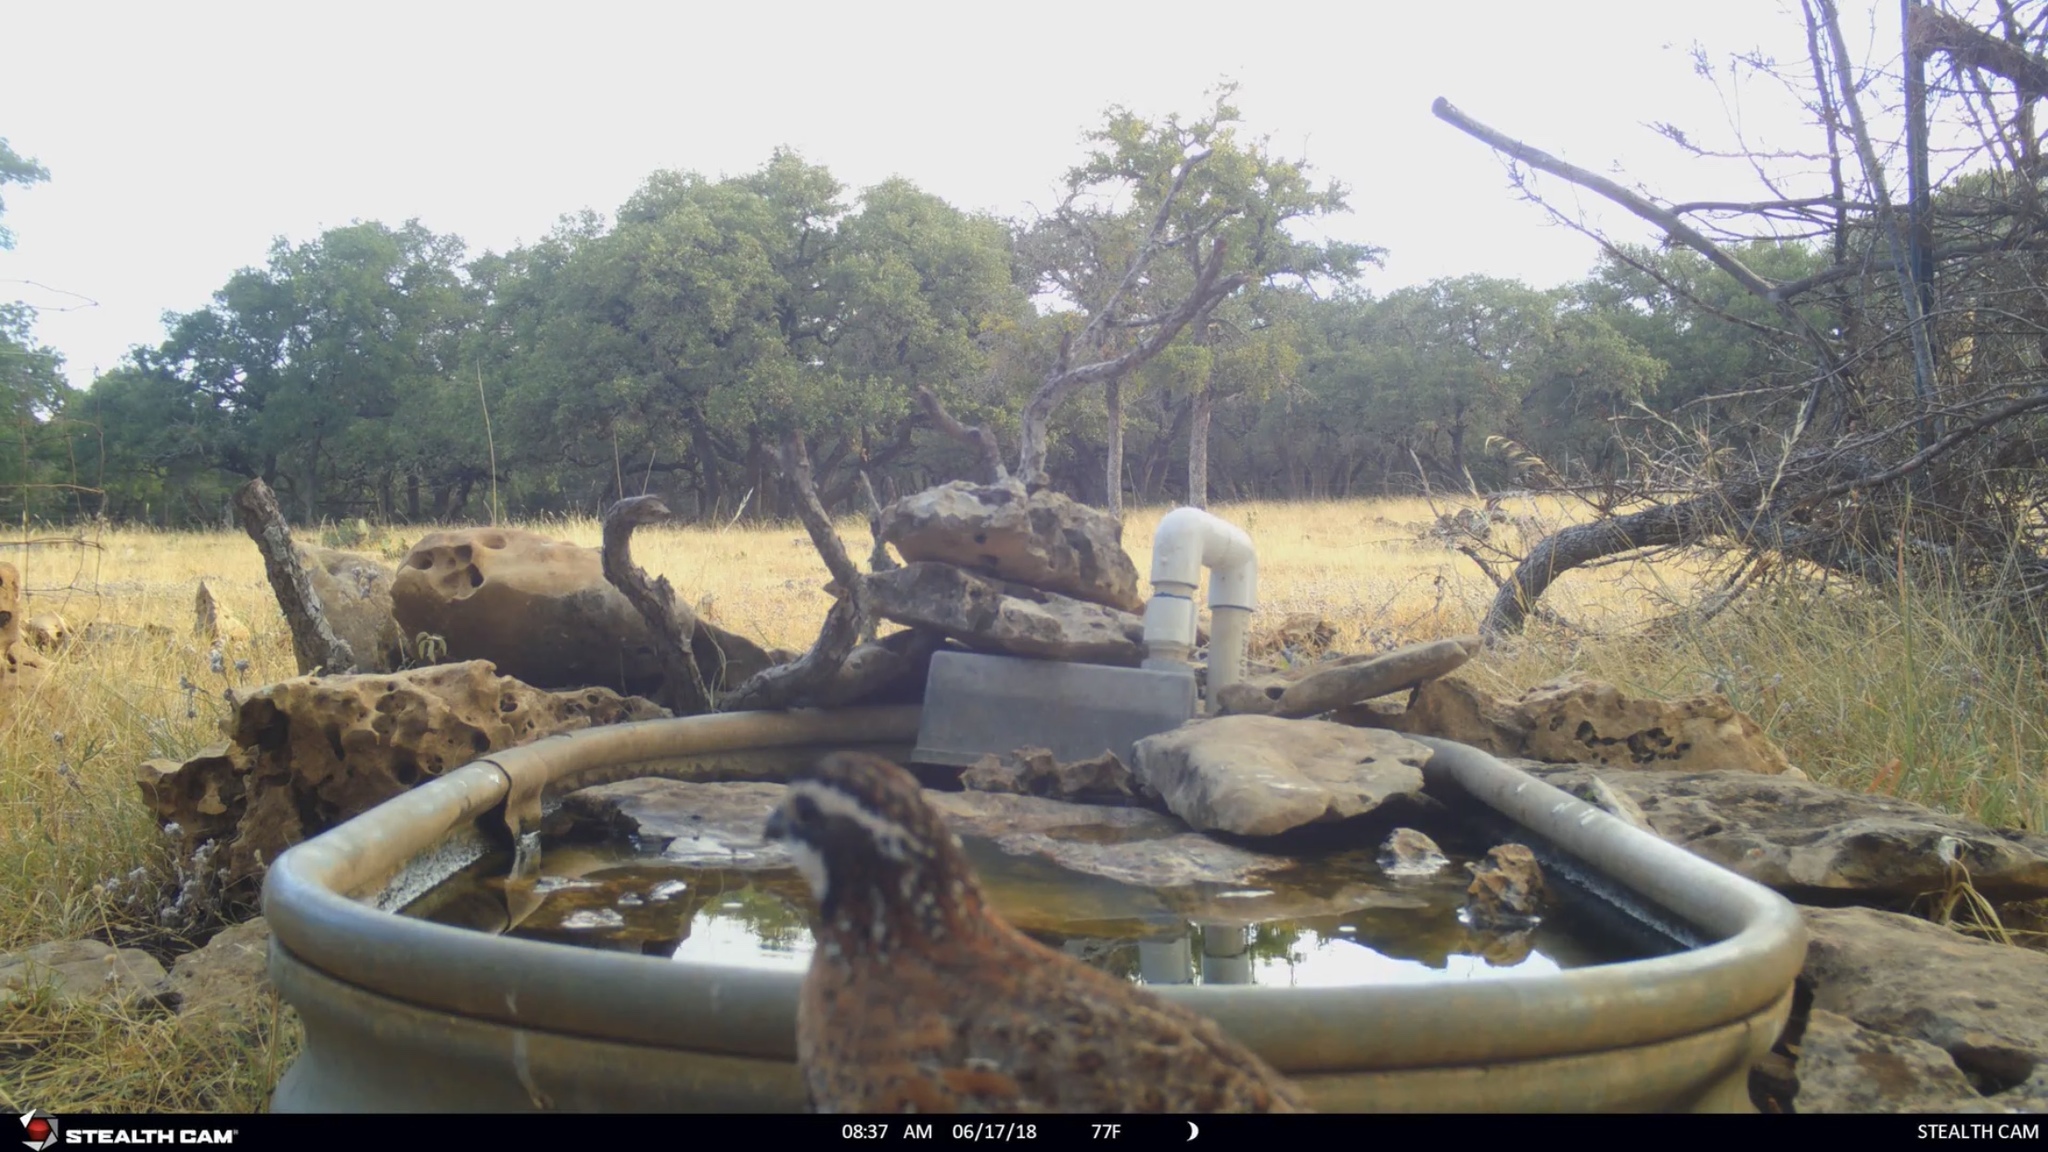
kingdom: Animalia
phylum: Chordata
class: Aves
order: Galliformes
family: Odontophoridae
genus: Colinus
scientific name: Colinus virginianus
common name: Northern bobwhite
